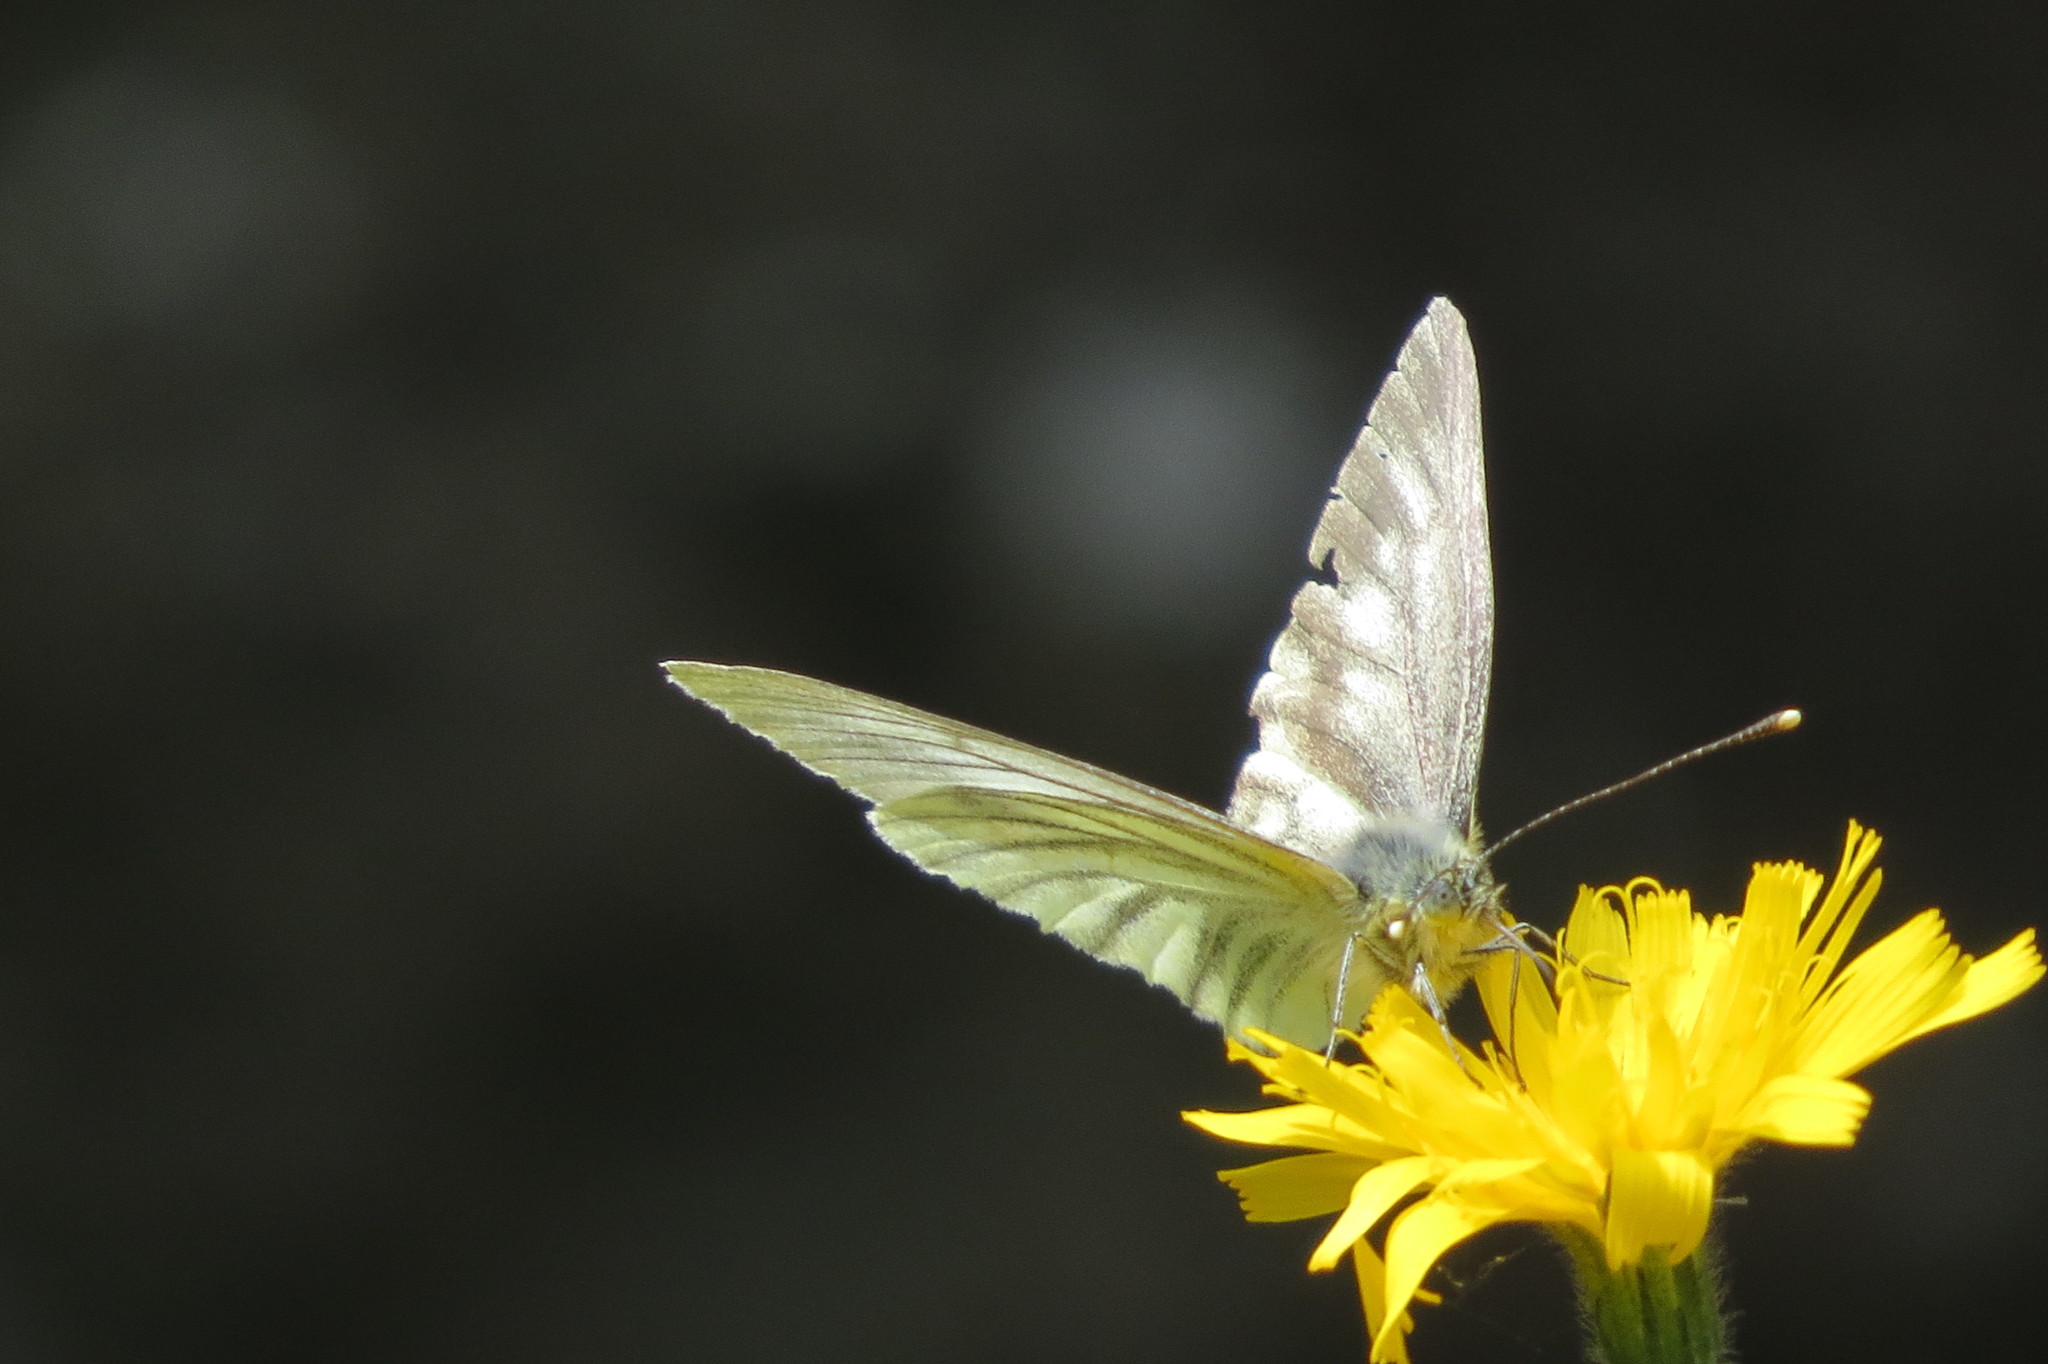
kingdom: Animalia
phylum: Arthropoda
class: Insecta
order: Lepidoptera
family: Pieridae
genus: Pieris
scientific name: Pieris bryoniae
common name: Mountain green-veined white
